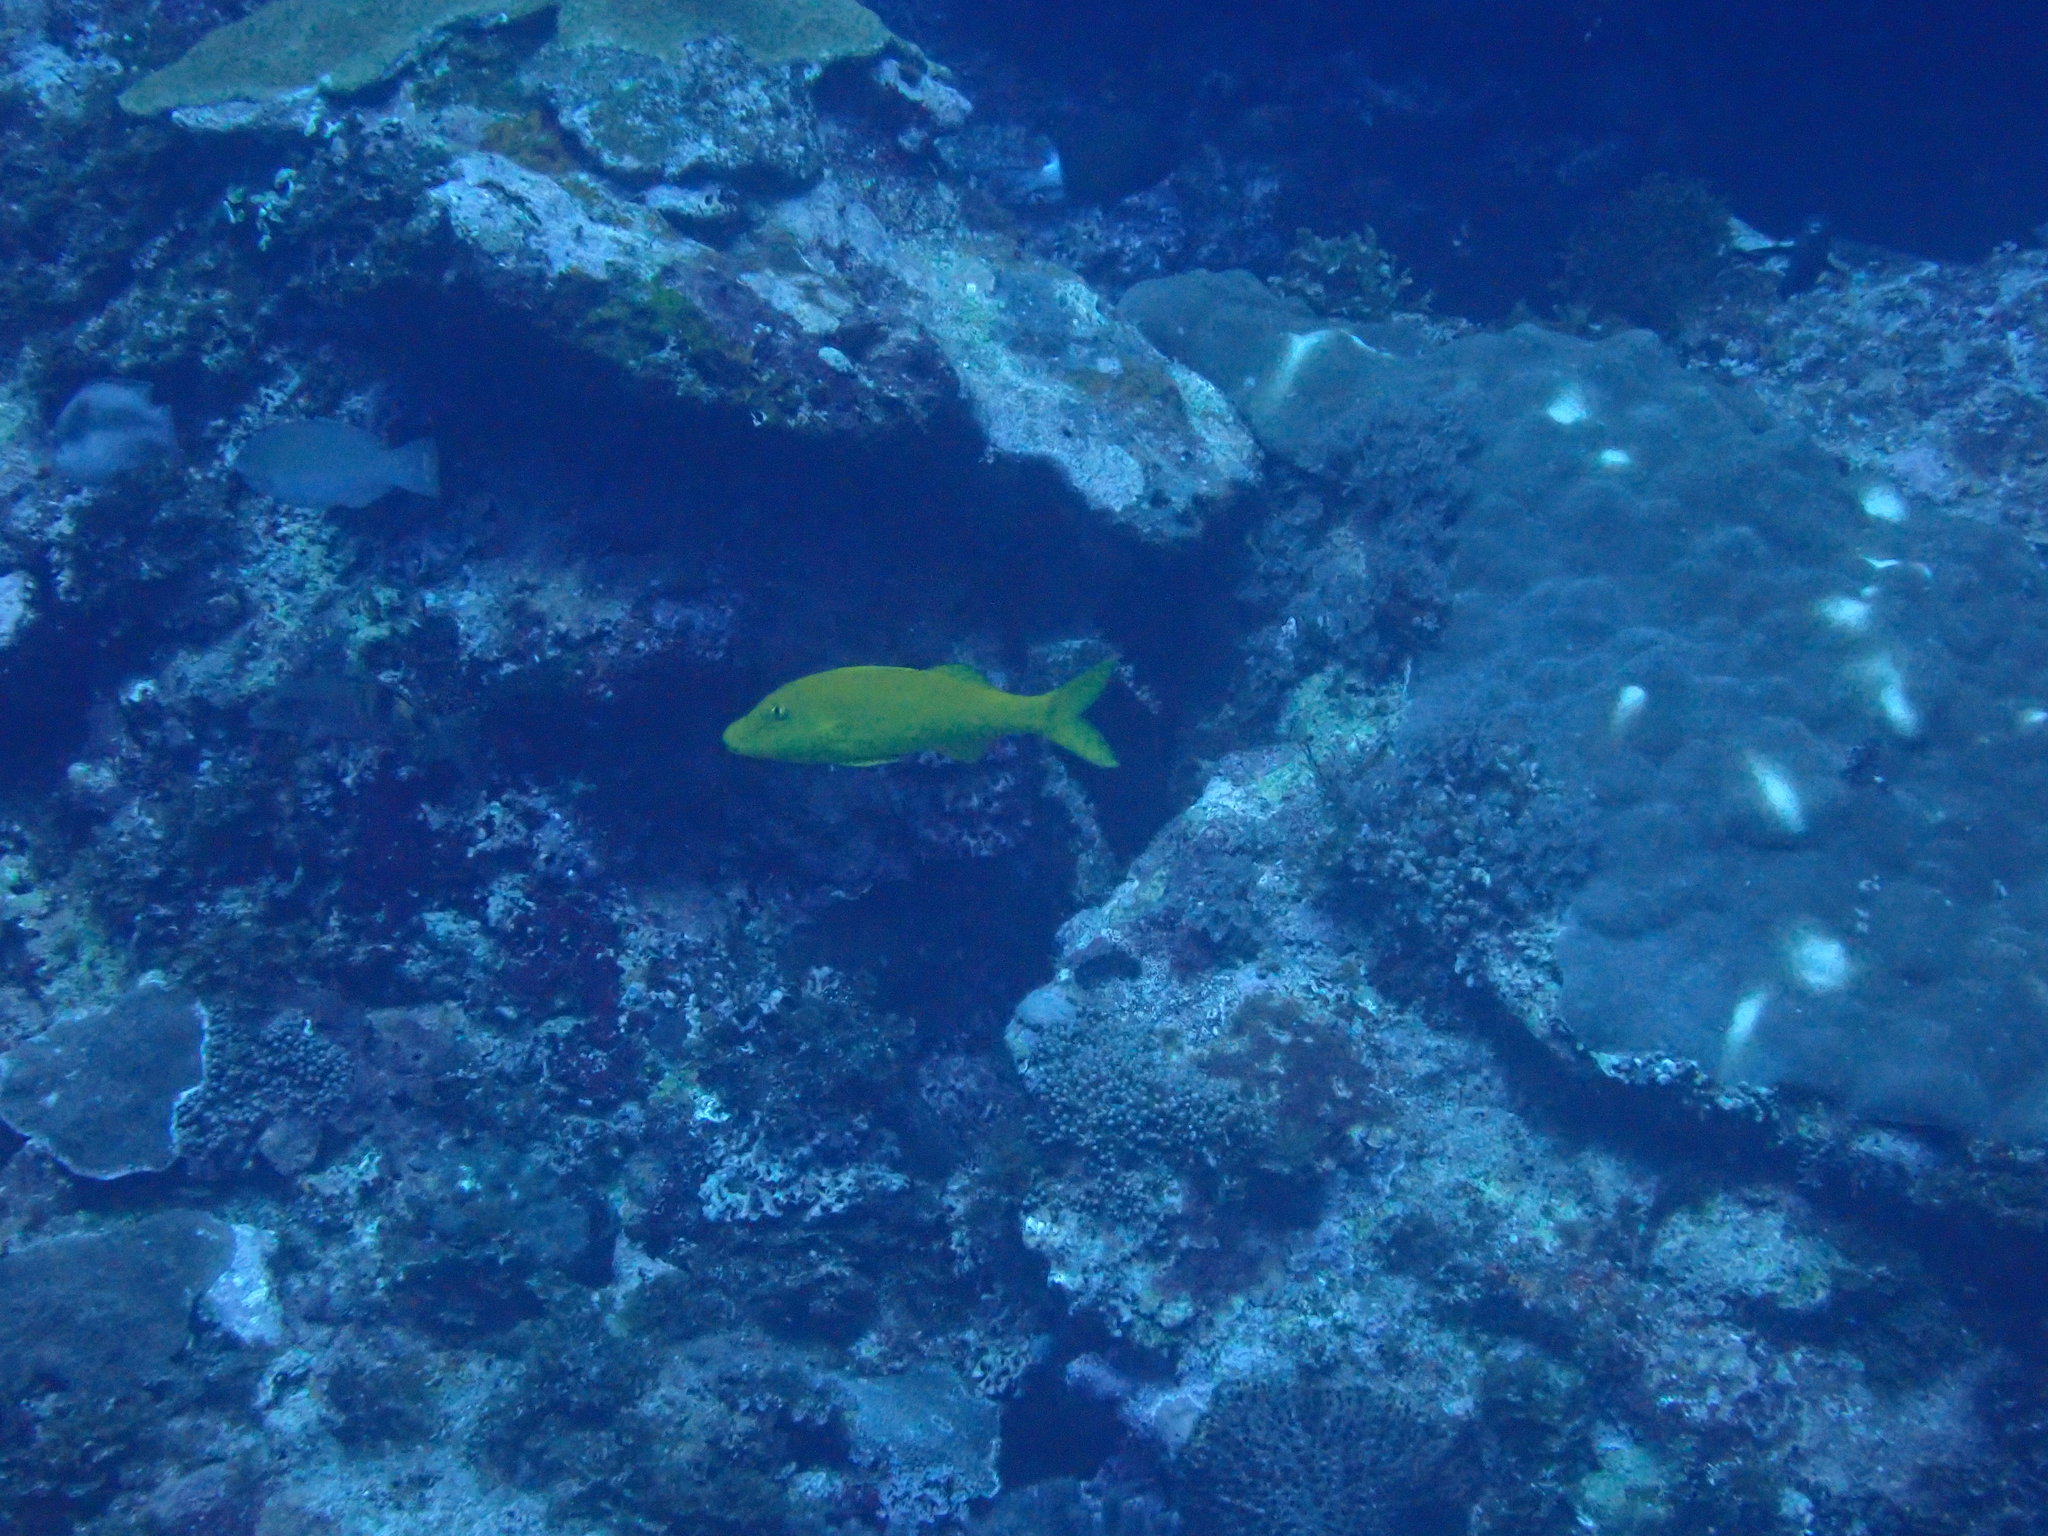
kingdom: Animalia
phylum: Chordata
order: Perciformes
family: Mullidae
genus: Parupeneus
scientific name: Parupeneus cyclostomus
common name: Goldsaddle goatfish
